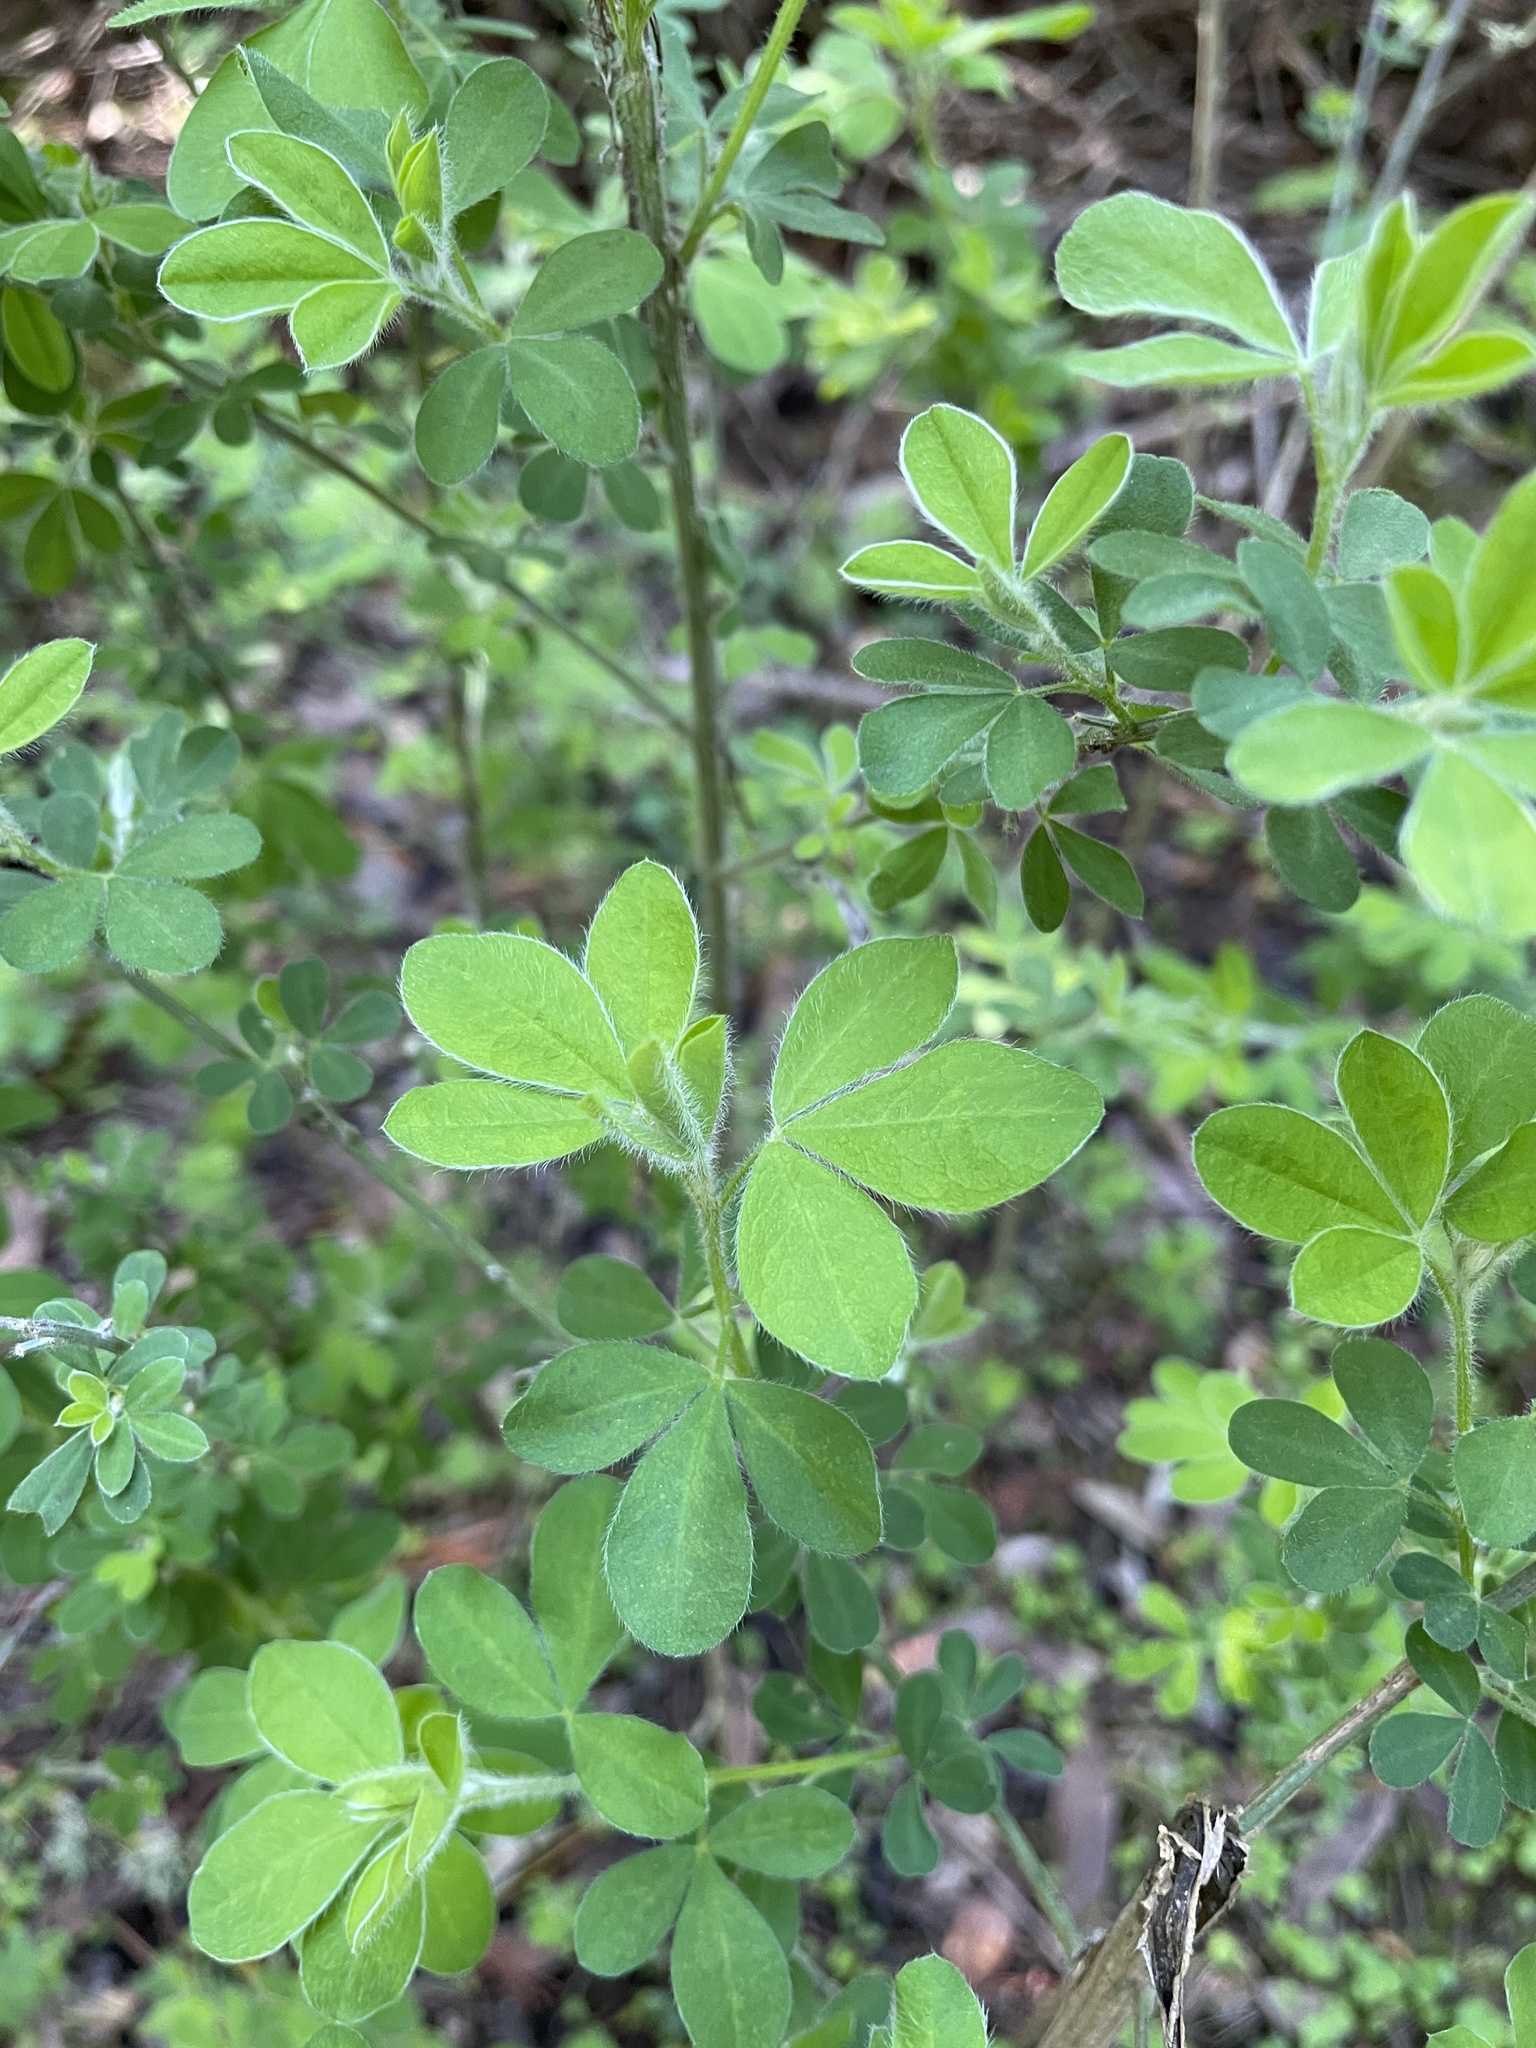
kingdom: Plantae
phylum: Tracheophyta
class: Magnoliopsida
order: Fabales
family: Fabaceae
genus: Genista
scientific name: Genista monspessulana
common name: Montpellier broom
